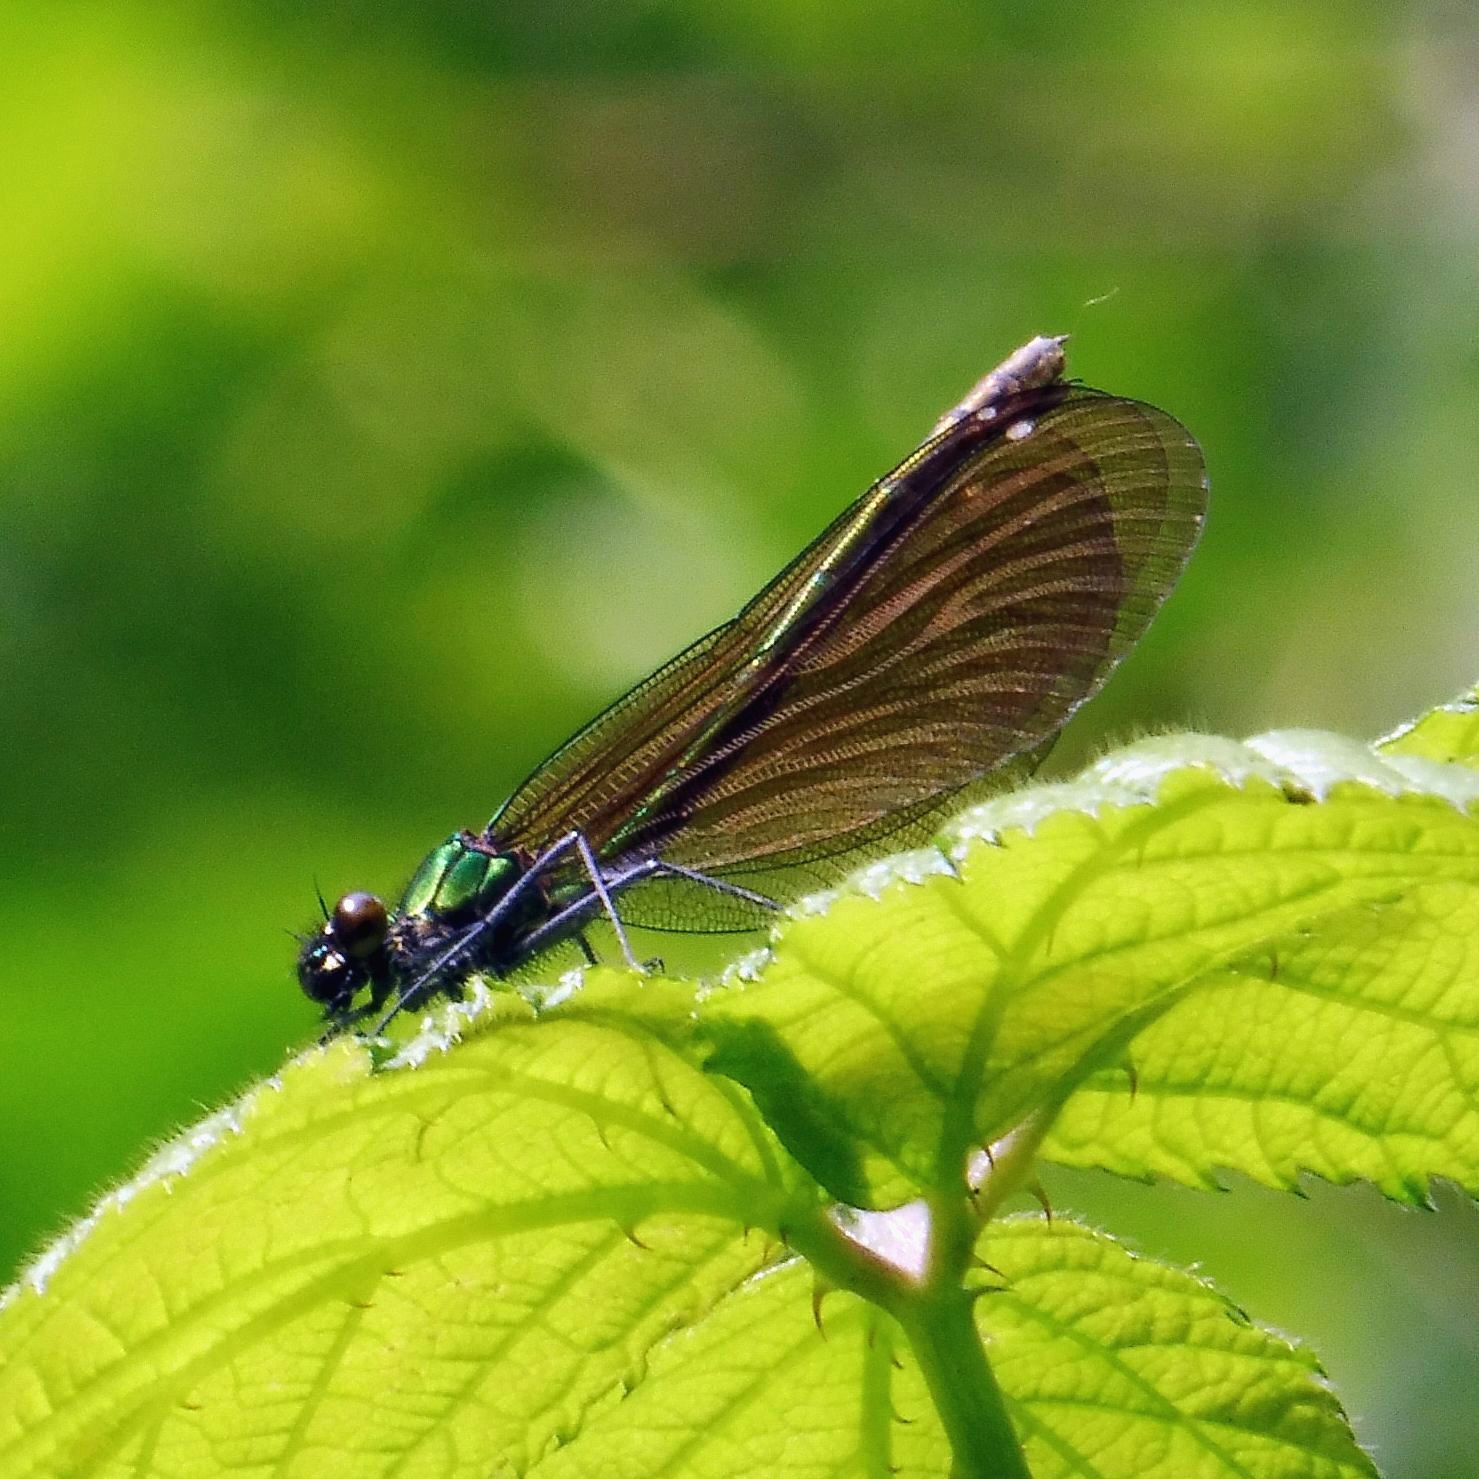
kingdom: Animalia
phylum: Arthropoda
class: Insecta
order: Odonata
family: Calopterygidae
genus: Calopteryx
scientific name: Calopteryx virgo
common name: Beautiful demoiselle
